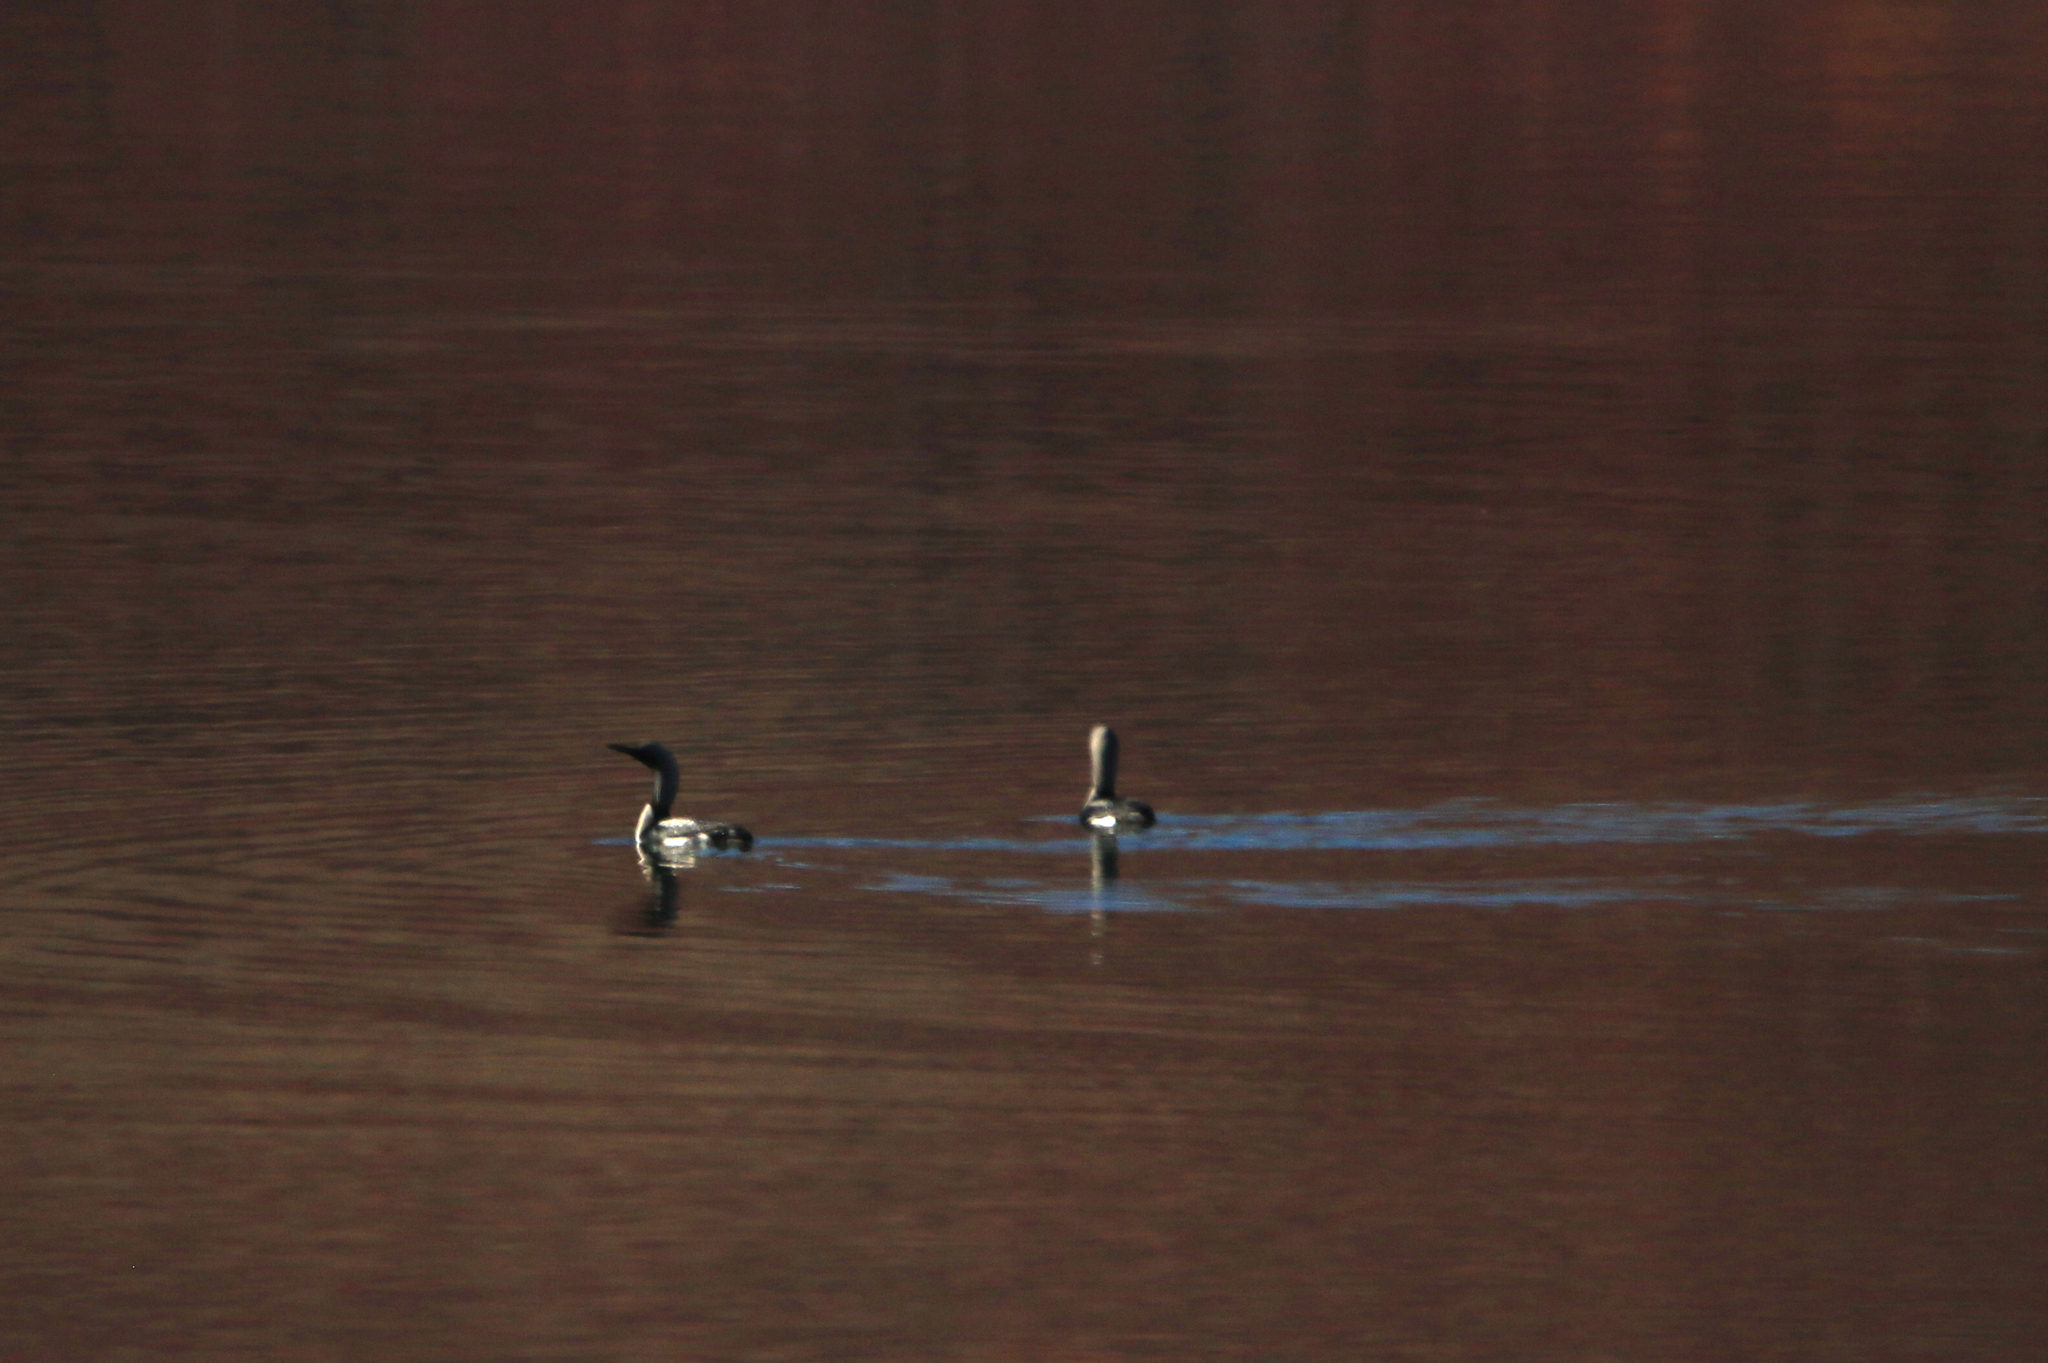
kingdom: Animalia
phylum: Chordata
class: Aves
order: Gaviiformes
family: Gaviidae
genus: Gavia
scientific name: Gavia arctica
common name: Black-throated loon
